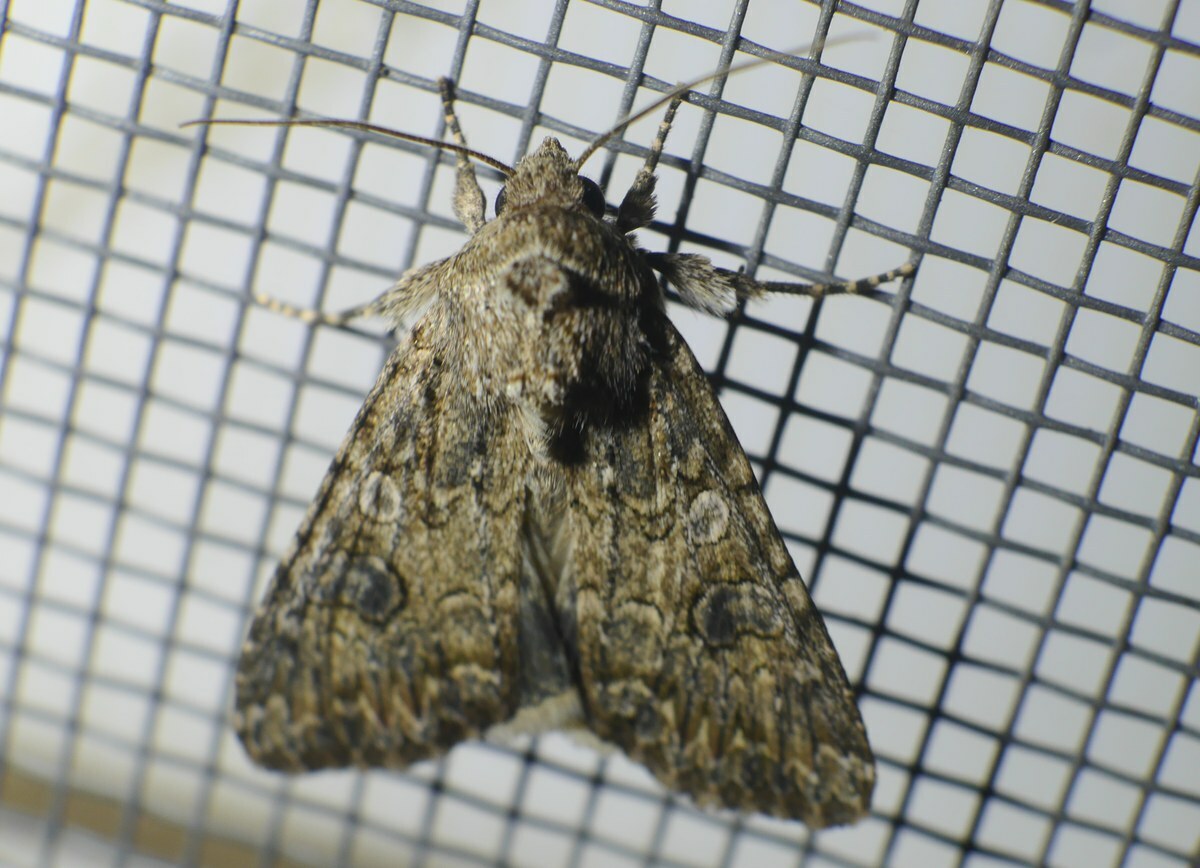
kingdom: Animalia
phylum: Arthropoda
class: Insecta
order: Lepidoptera
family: Noctuidae
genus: Anarta
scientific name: Anarta trifolii
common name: Clover cutworm moth
